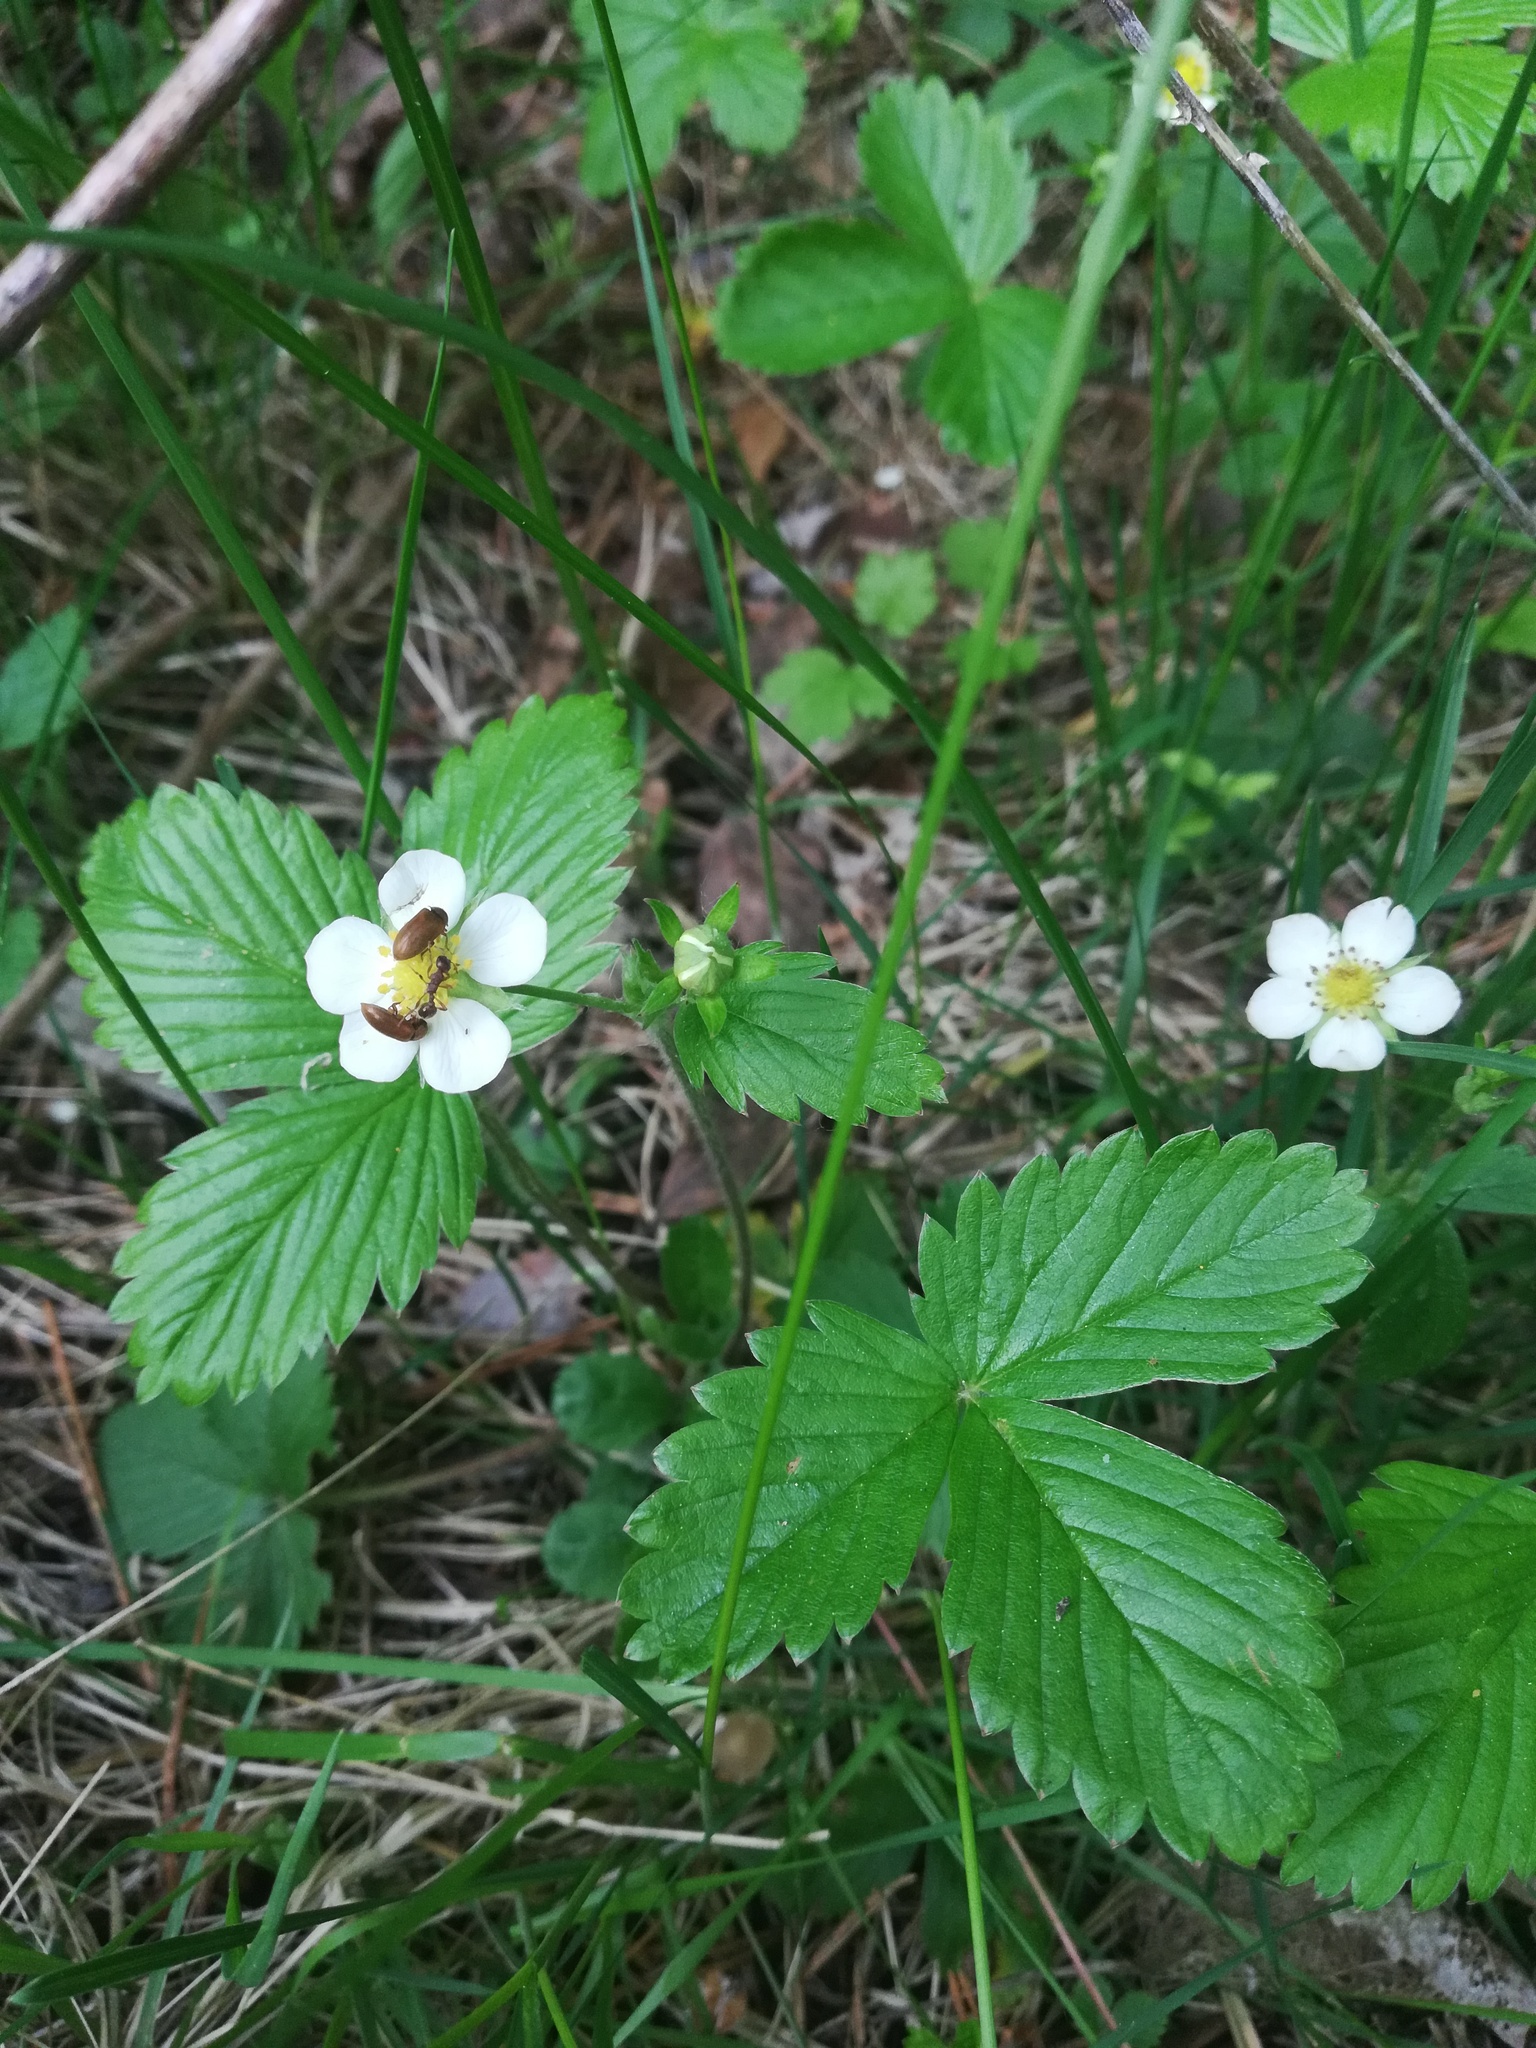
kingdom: Plantae
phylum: Tracheophyta
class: Magnoliopsida
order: Rosales
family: Rosaceae
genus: Fragaria
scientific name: Fragaria vesca
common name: Wild strawberry
